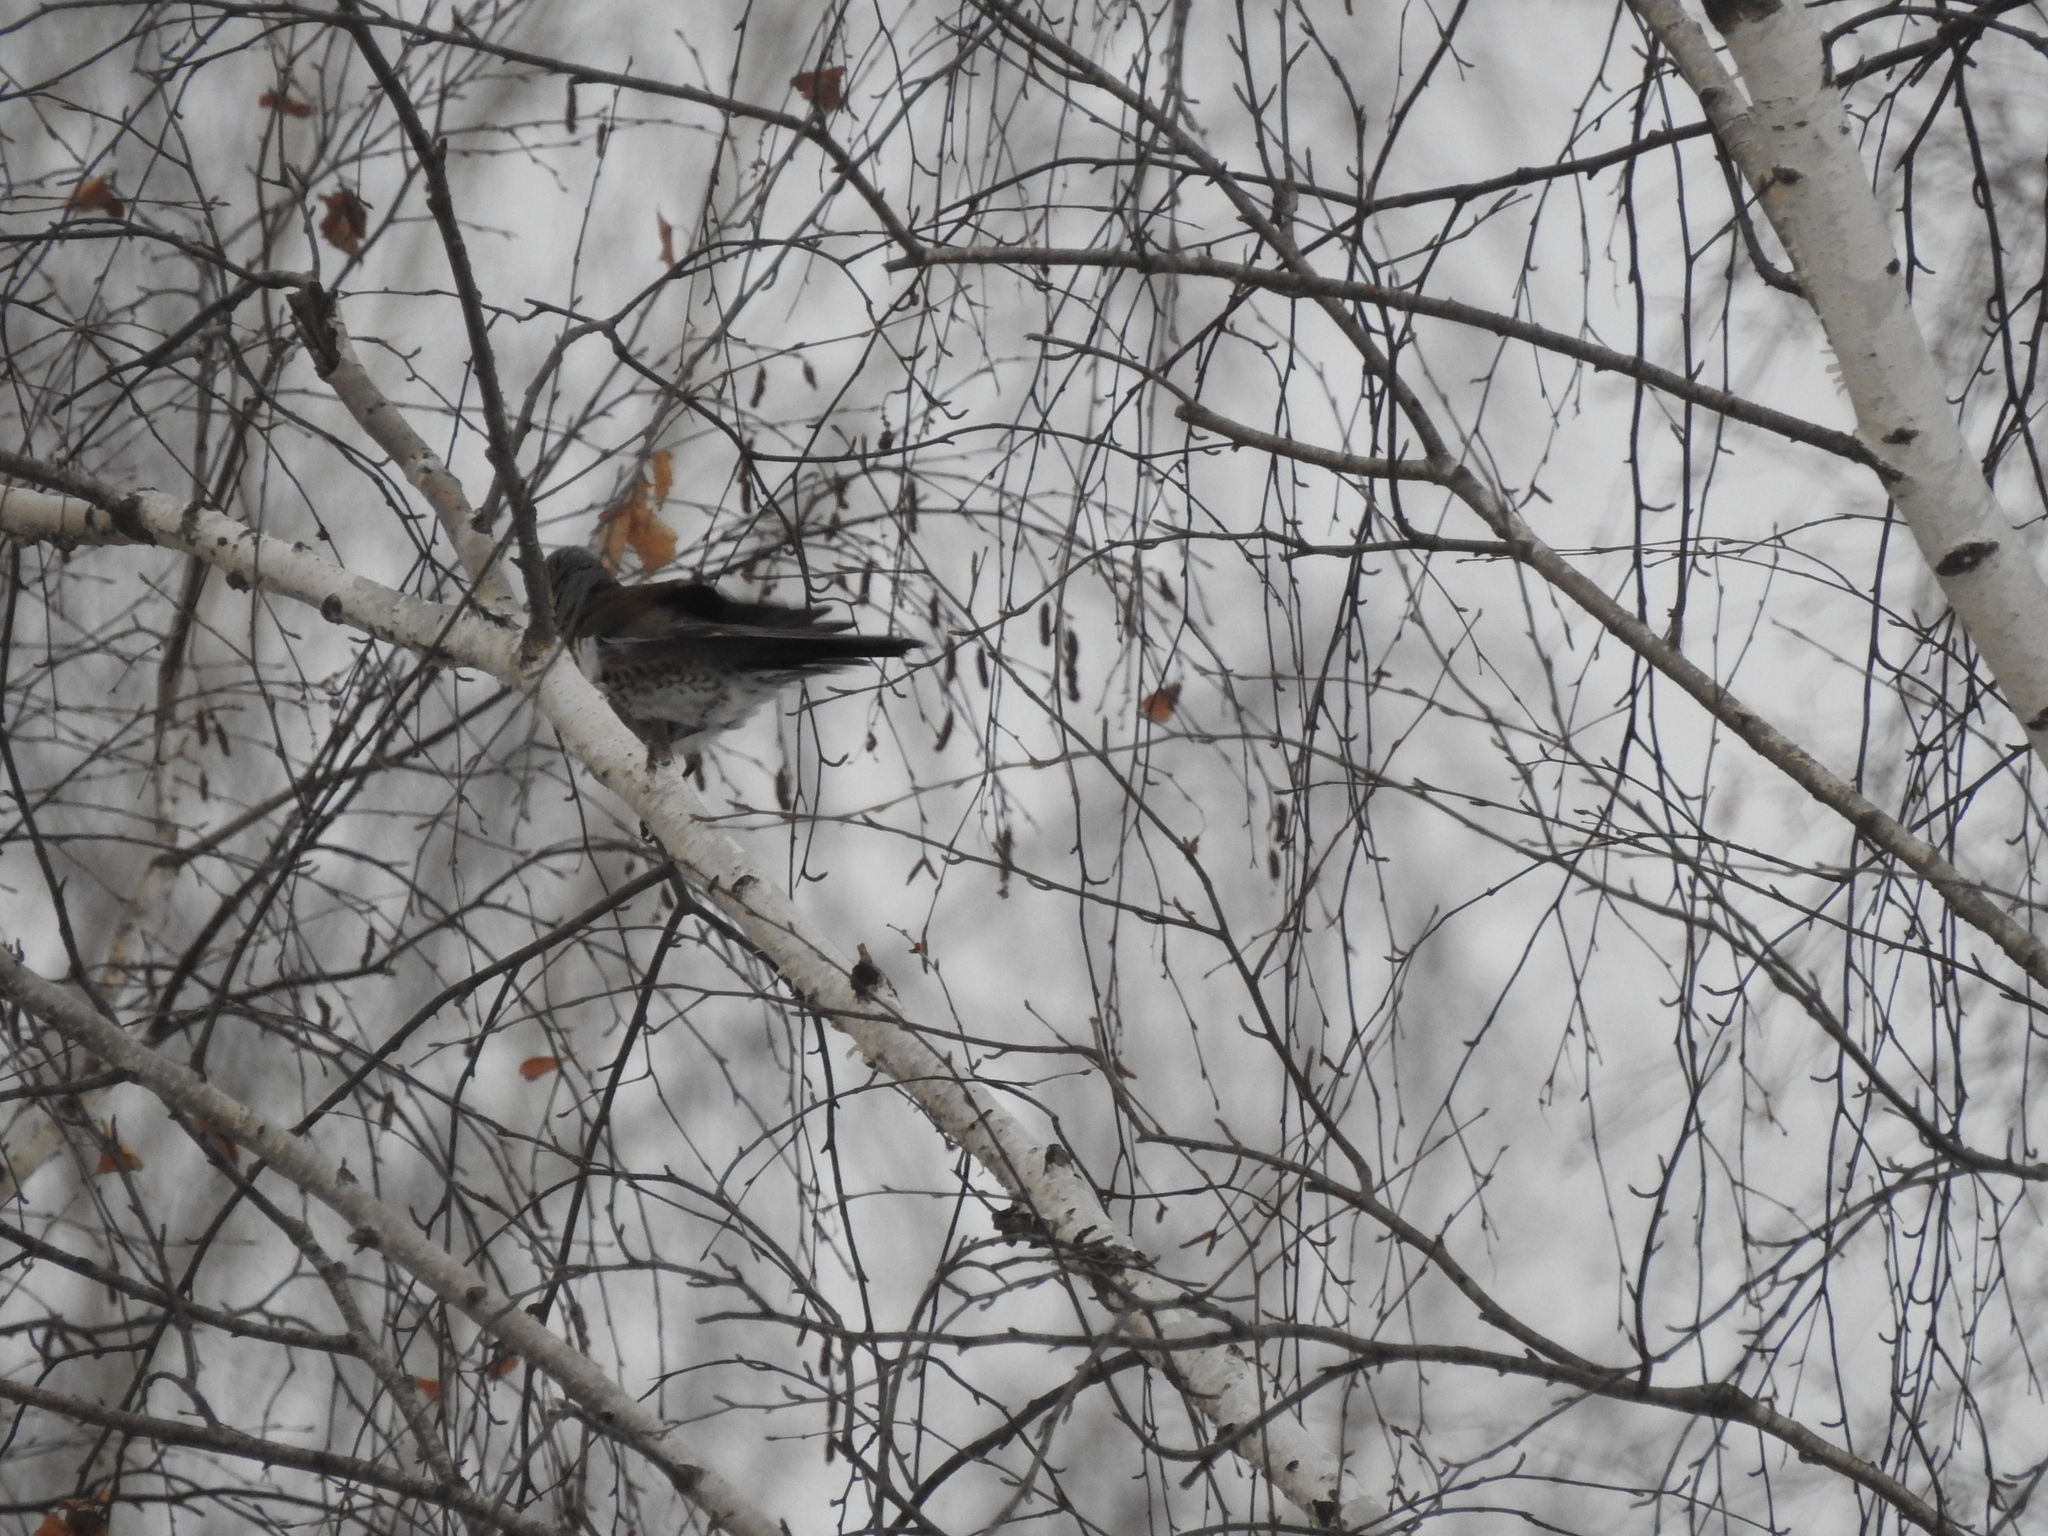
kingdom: Animalia
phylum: Chordata
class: Aves
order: Passeriformes
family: Turdidae
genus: Turdus
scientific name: Turdus pilaris
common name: Fieldfare
